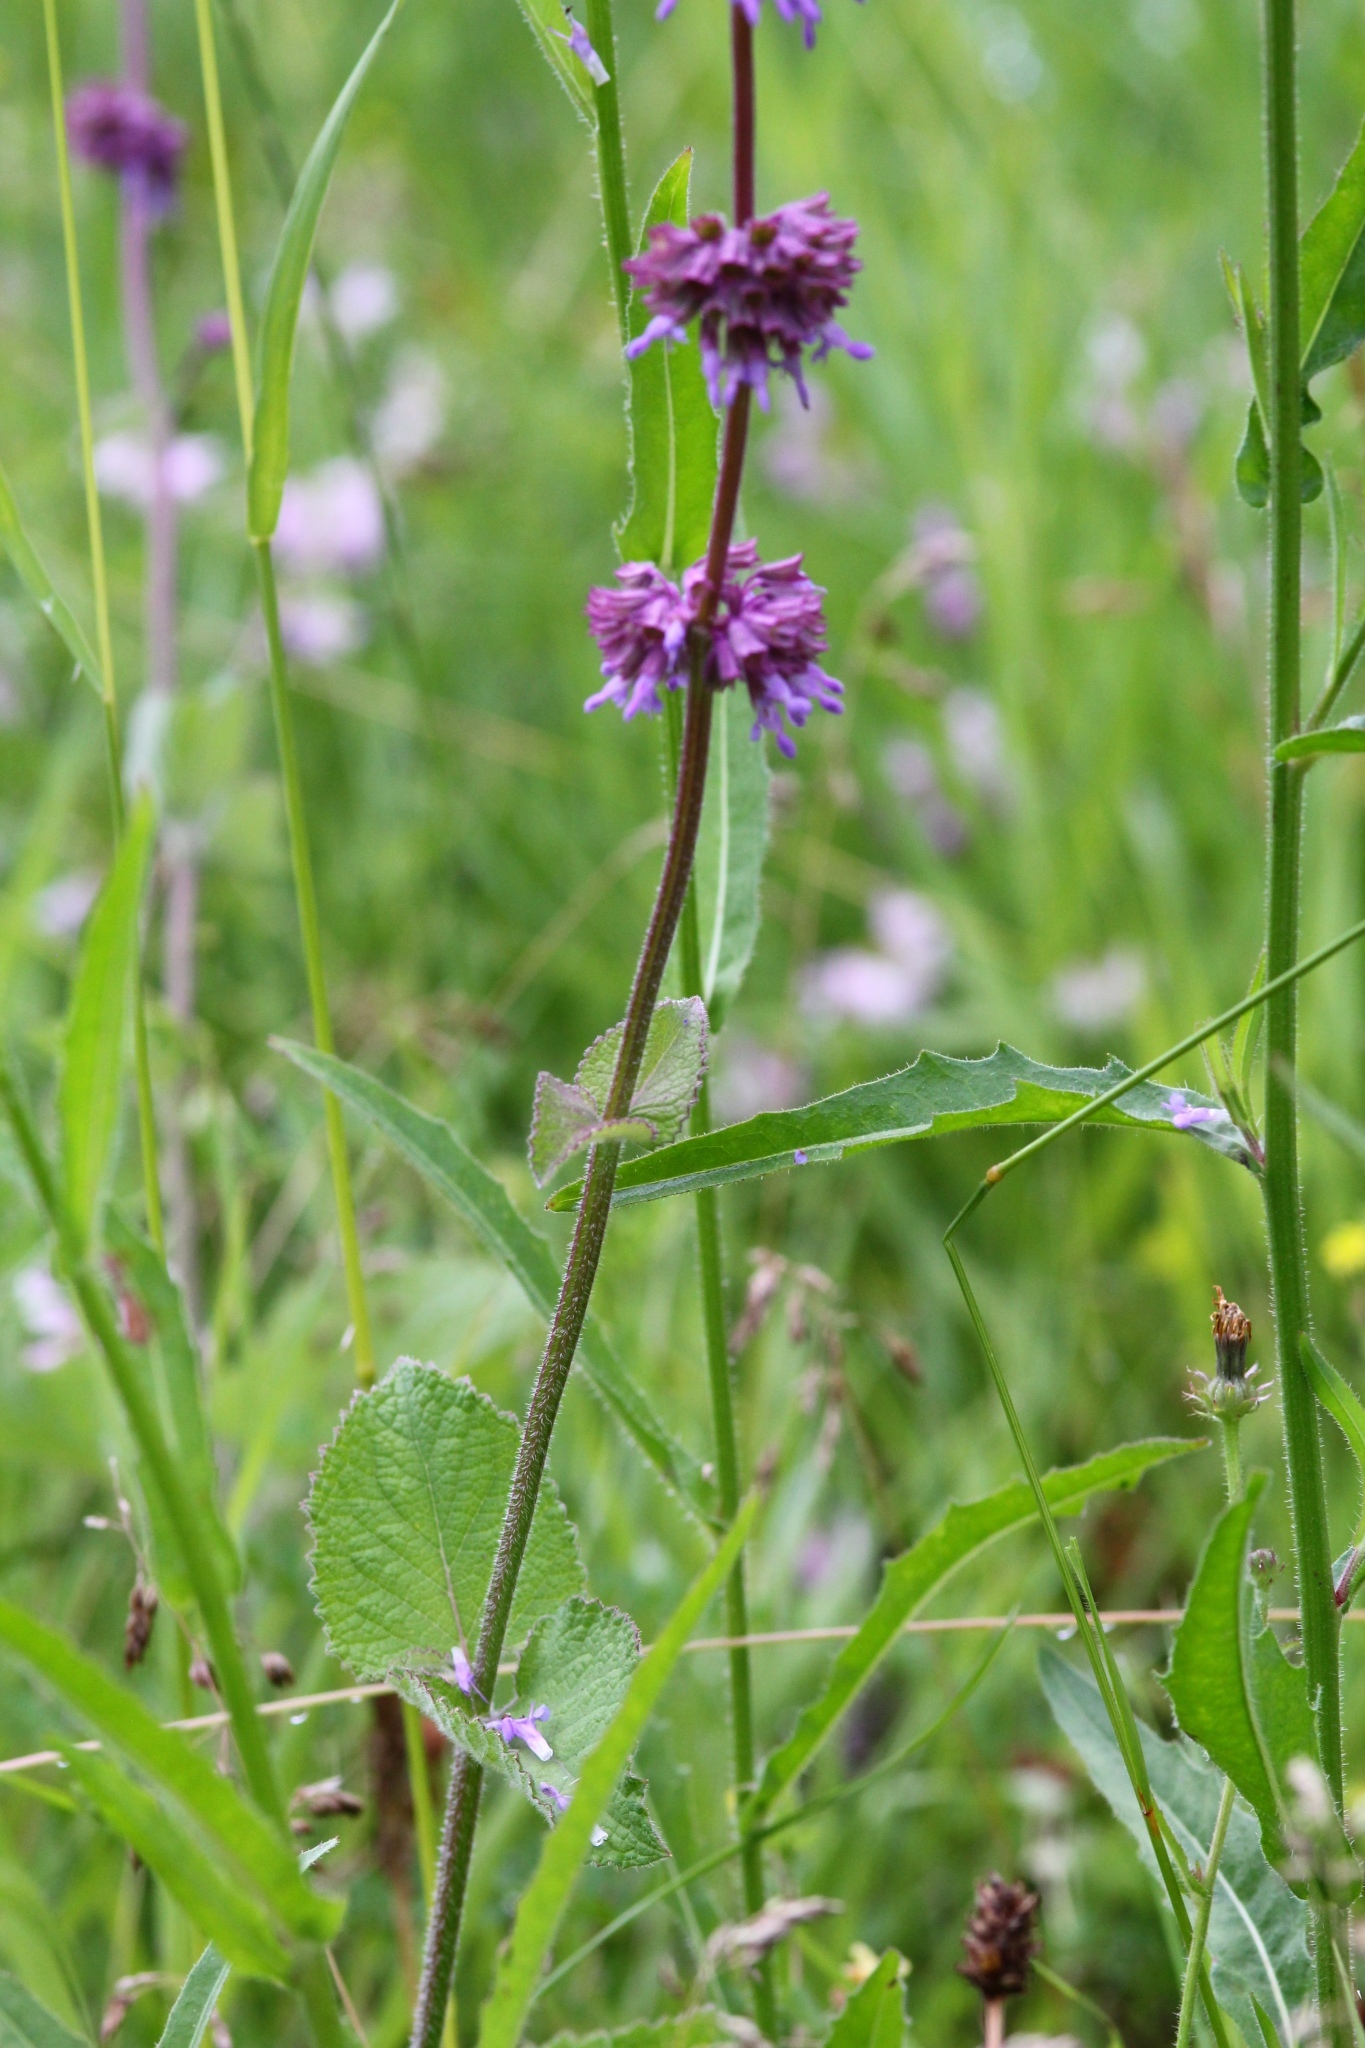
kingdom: Plantae
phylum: Tracheophyta
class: Magnoliopsida
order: Lamiales
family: Lamiaceae
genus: Salvia
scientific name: Salvia verticillata
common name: Whorled clary
